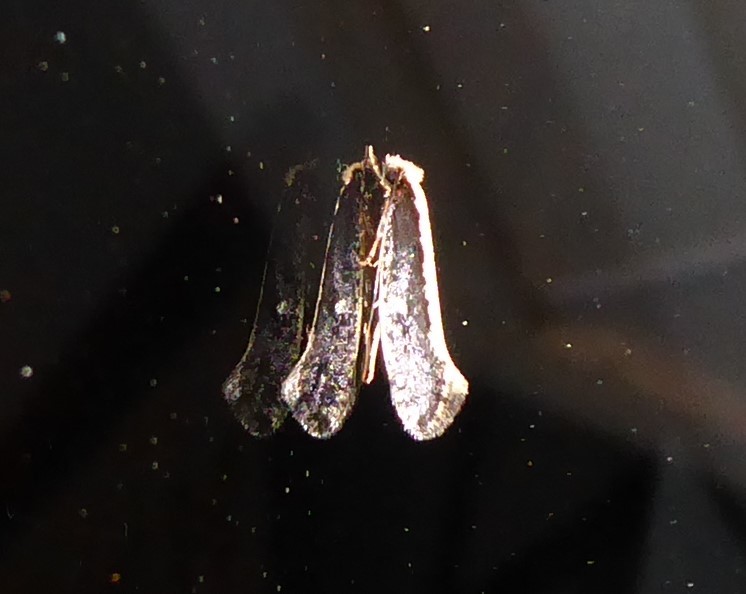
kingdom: Animalia
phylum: Arthropoda
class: Insecta
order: Lepidoptera
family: Tineidae
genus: Monopis
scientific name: Monopis ethelella
